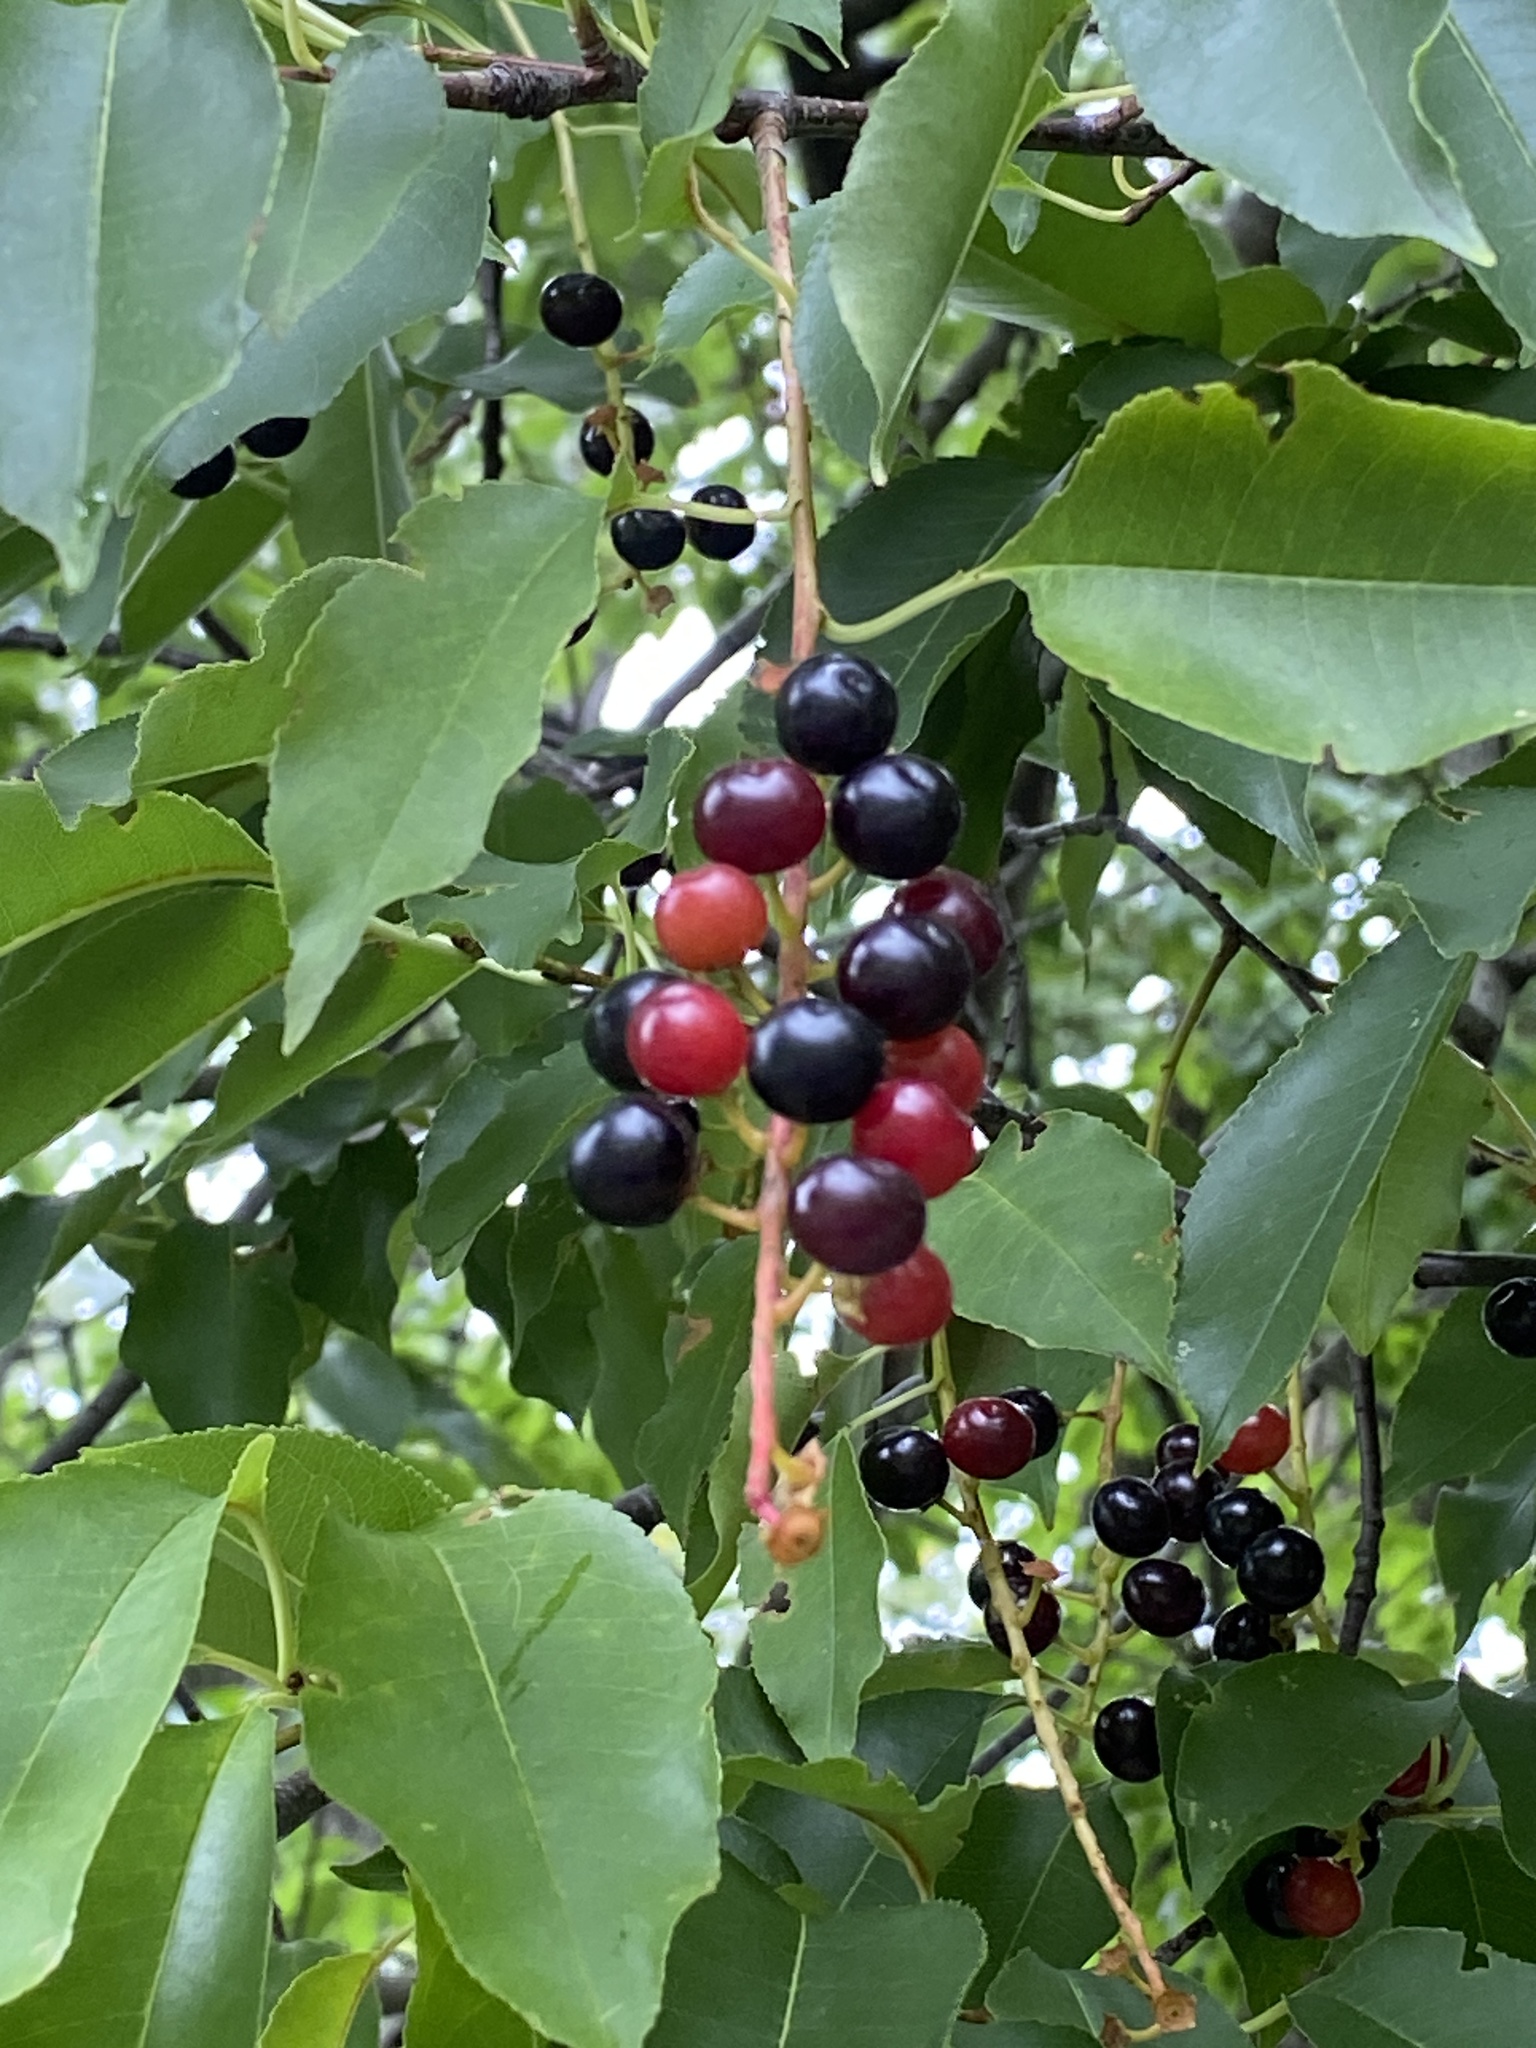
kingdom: Plantae
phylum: Tracheophyta
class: Magnoliopsida
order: Rosales
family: Rosaceae
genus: Prunus
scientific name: Prunus serotina
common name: Black cherry
